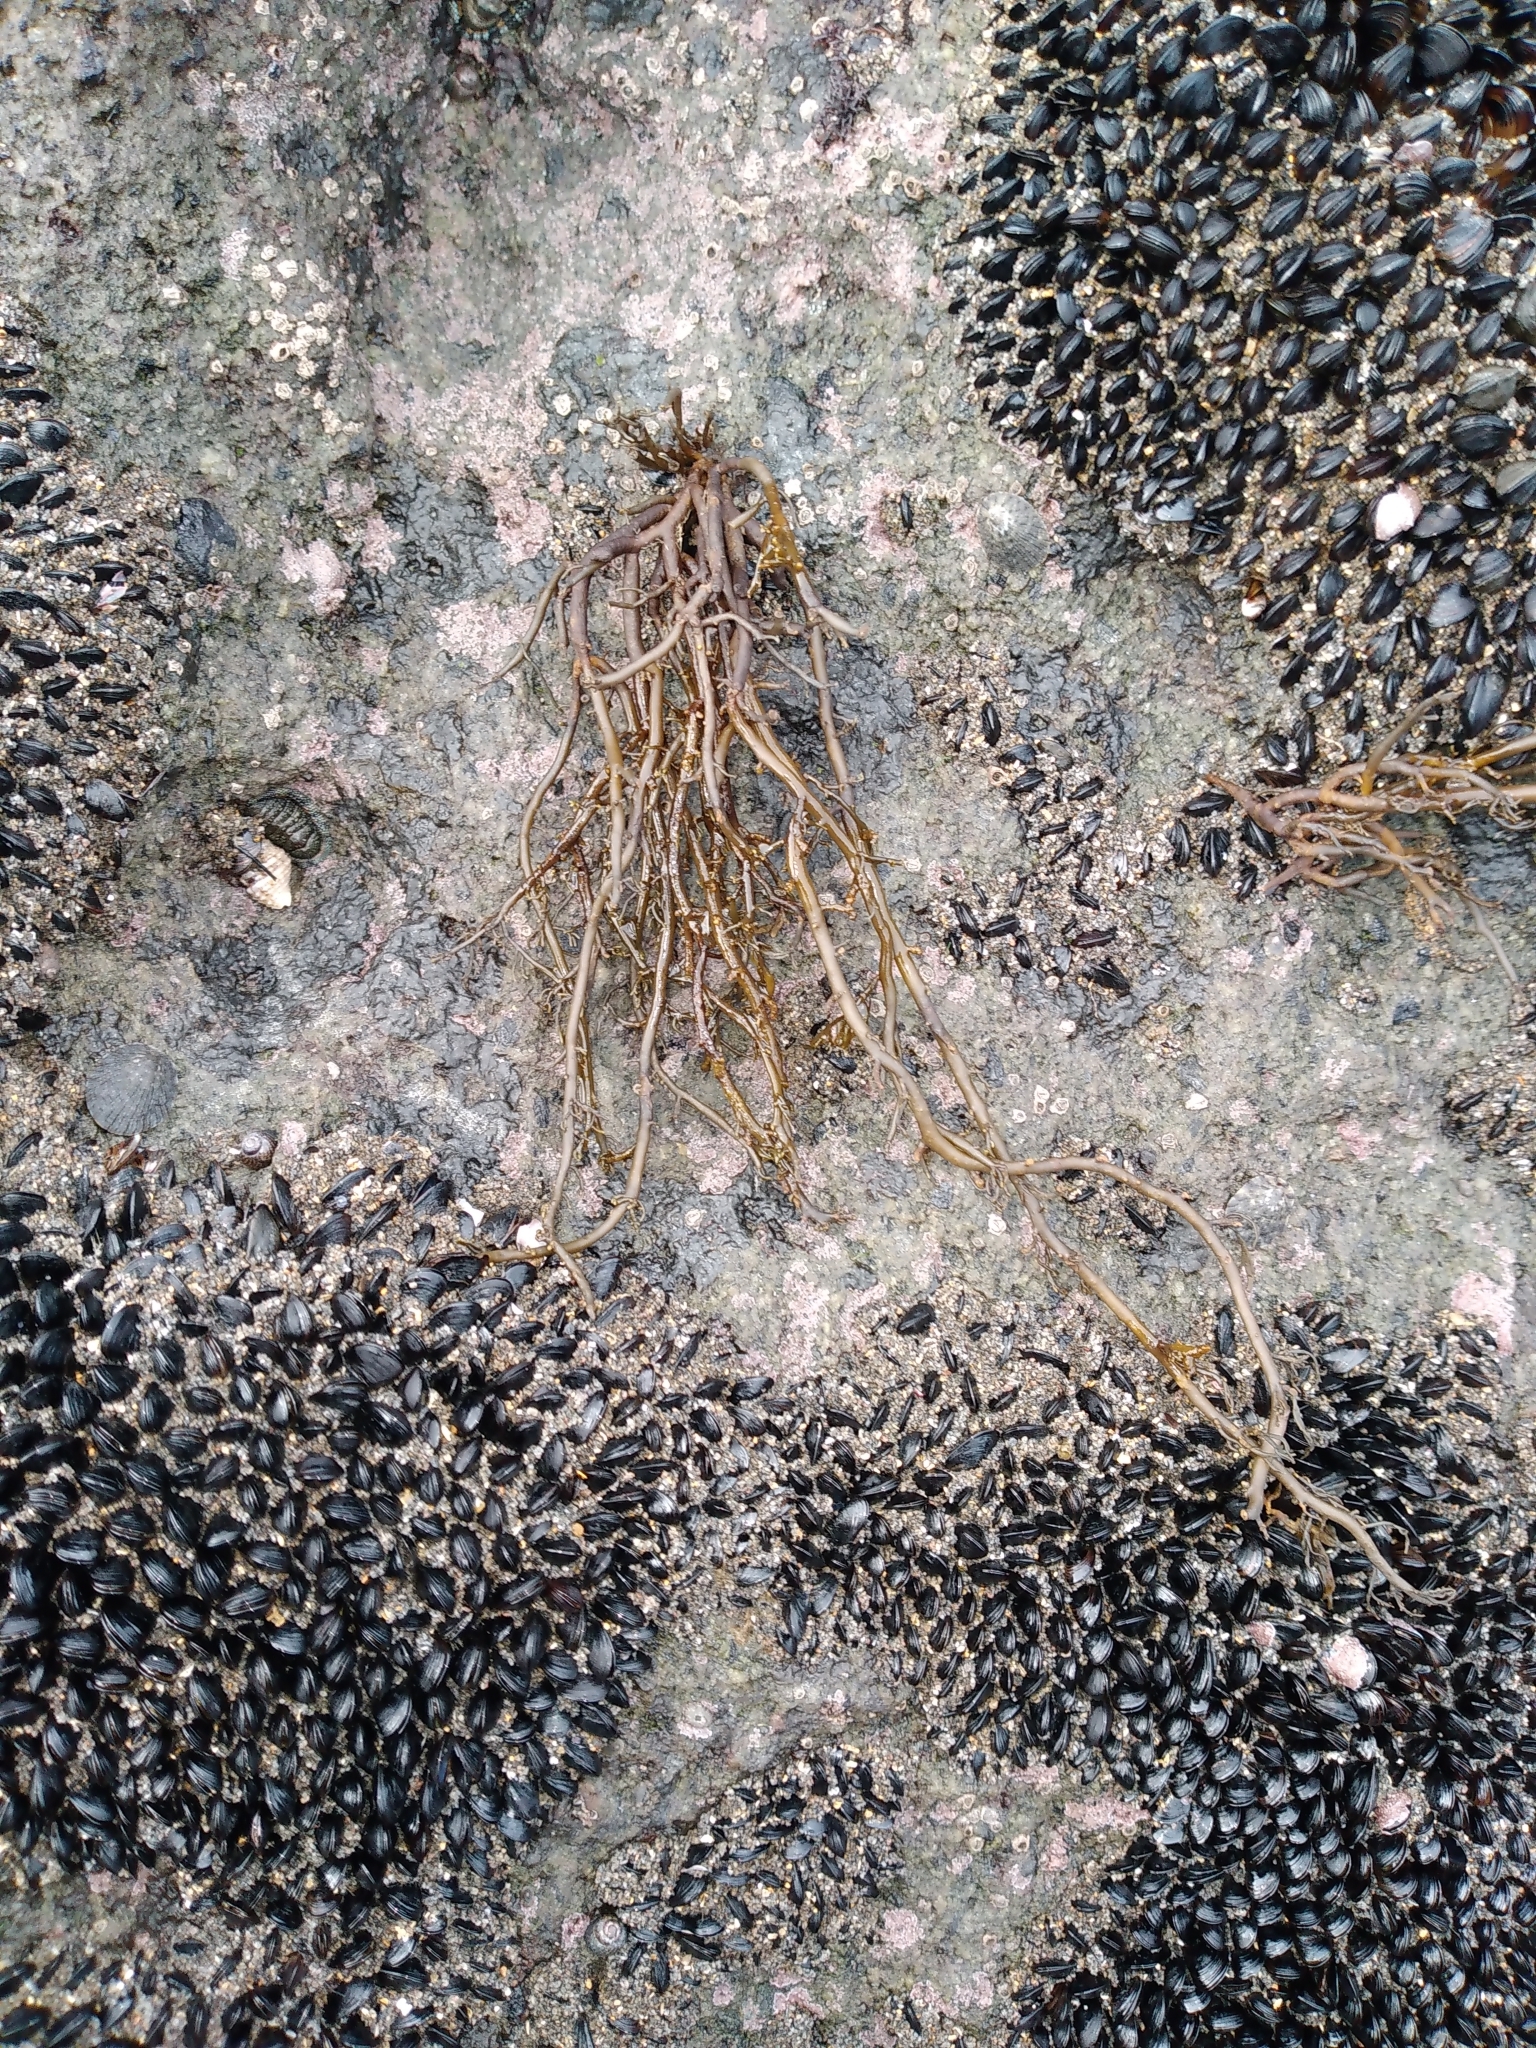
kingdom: Chromista
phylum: Ochrophyta
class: Phaeophyceae
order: Scytothamnales
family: Scytothamnaceae
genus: Scytothamnus
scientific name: Scytothamnus australis
